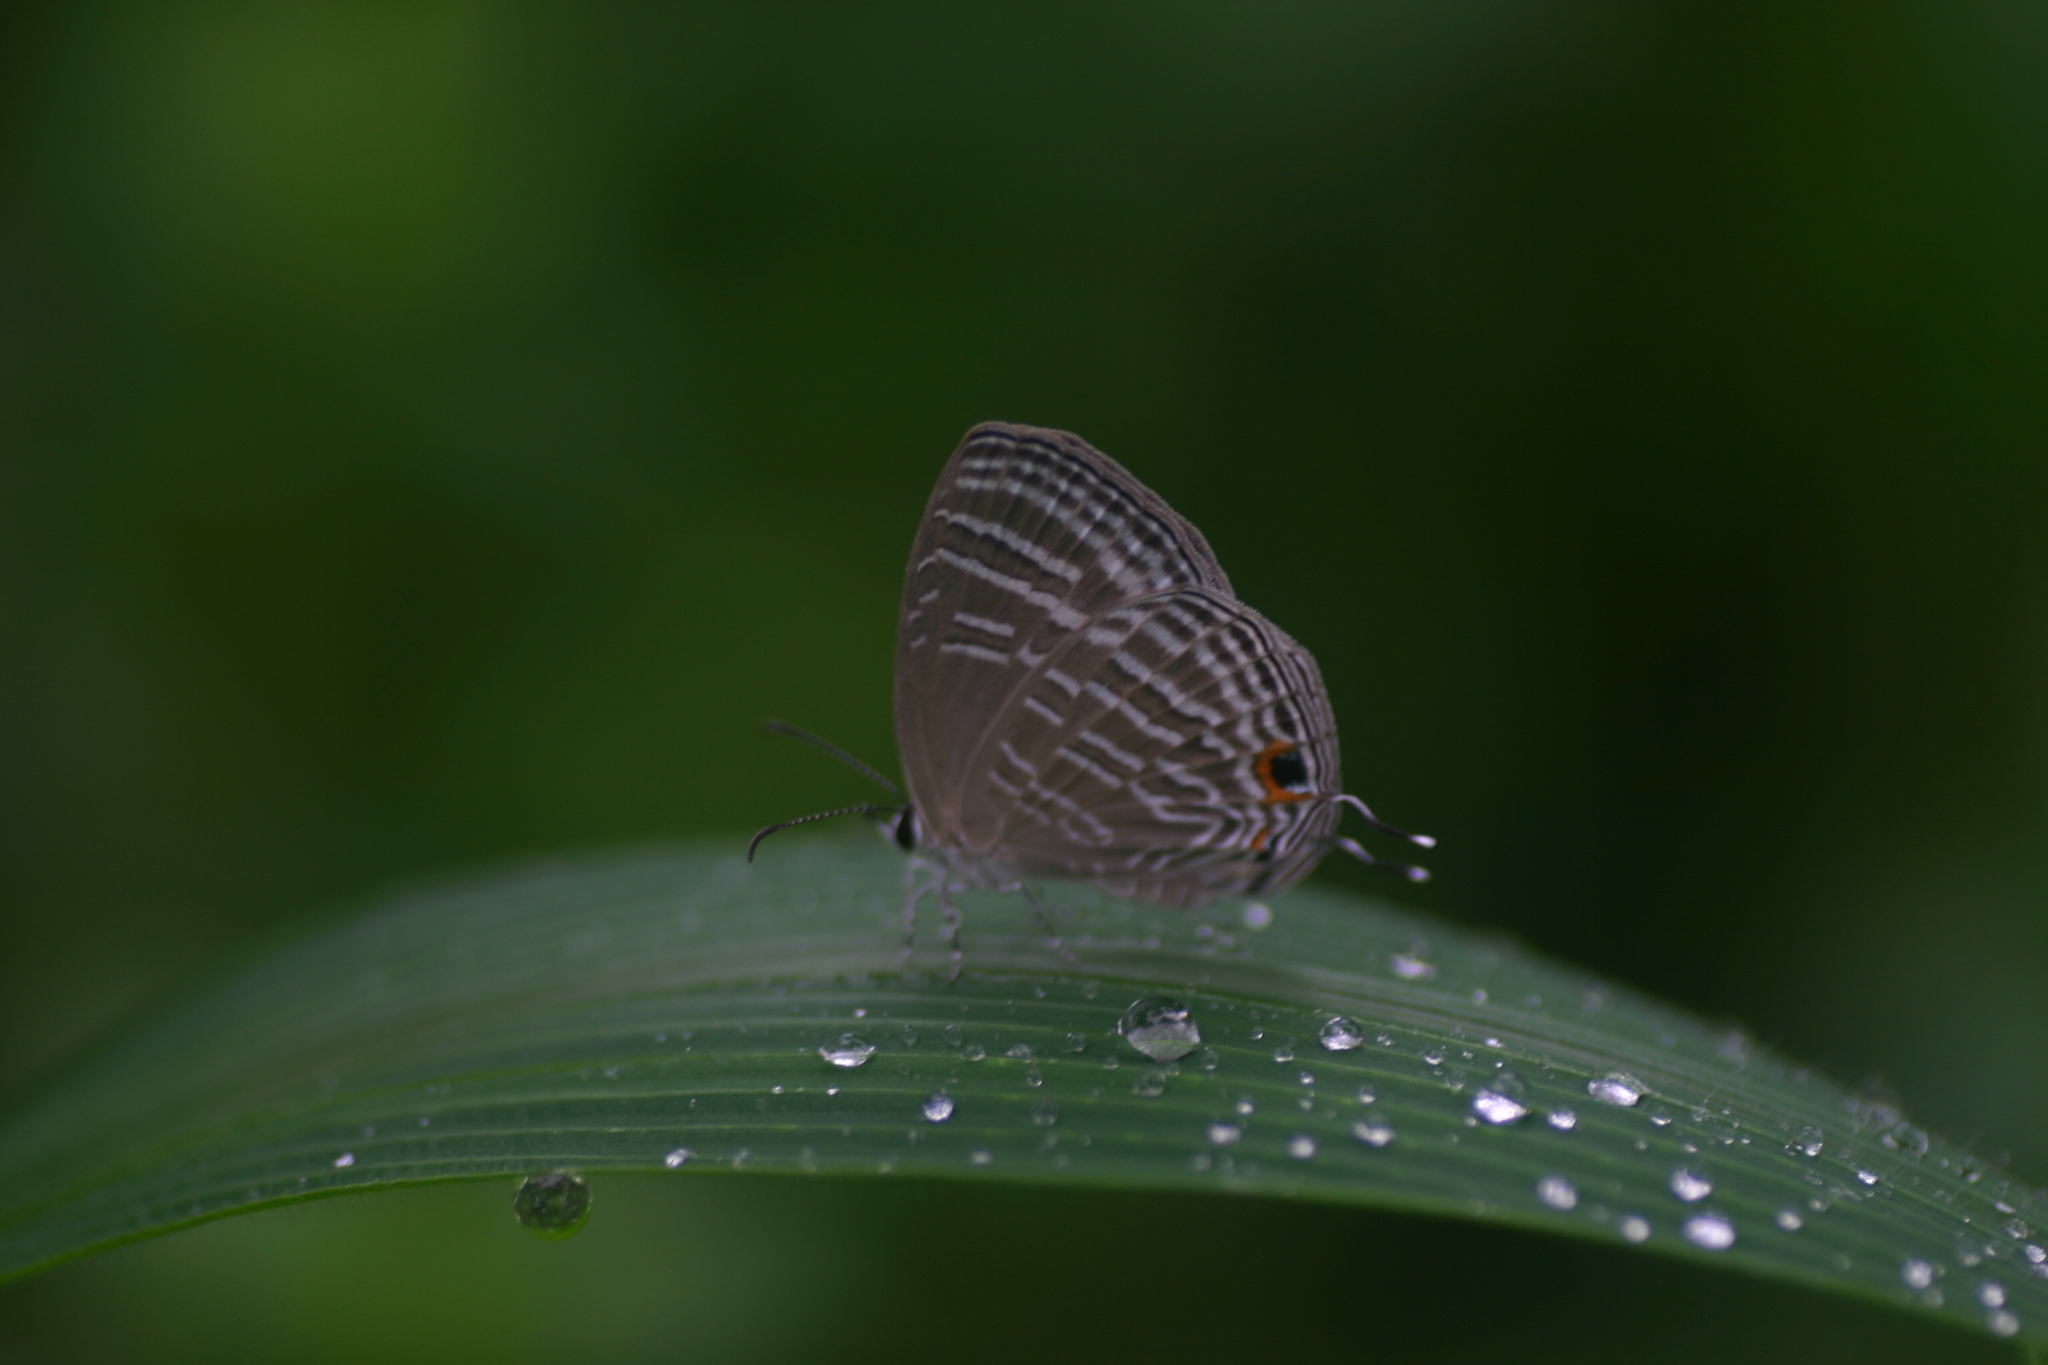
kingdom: Animalia
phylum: Arthropoda
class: Insecta
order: Lepidoptera
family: Lycaenidae
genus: Jamides
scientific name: Jamides celeno
